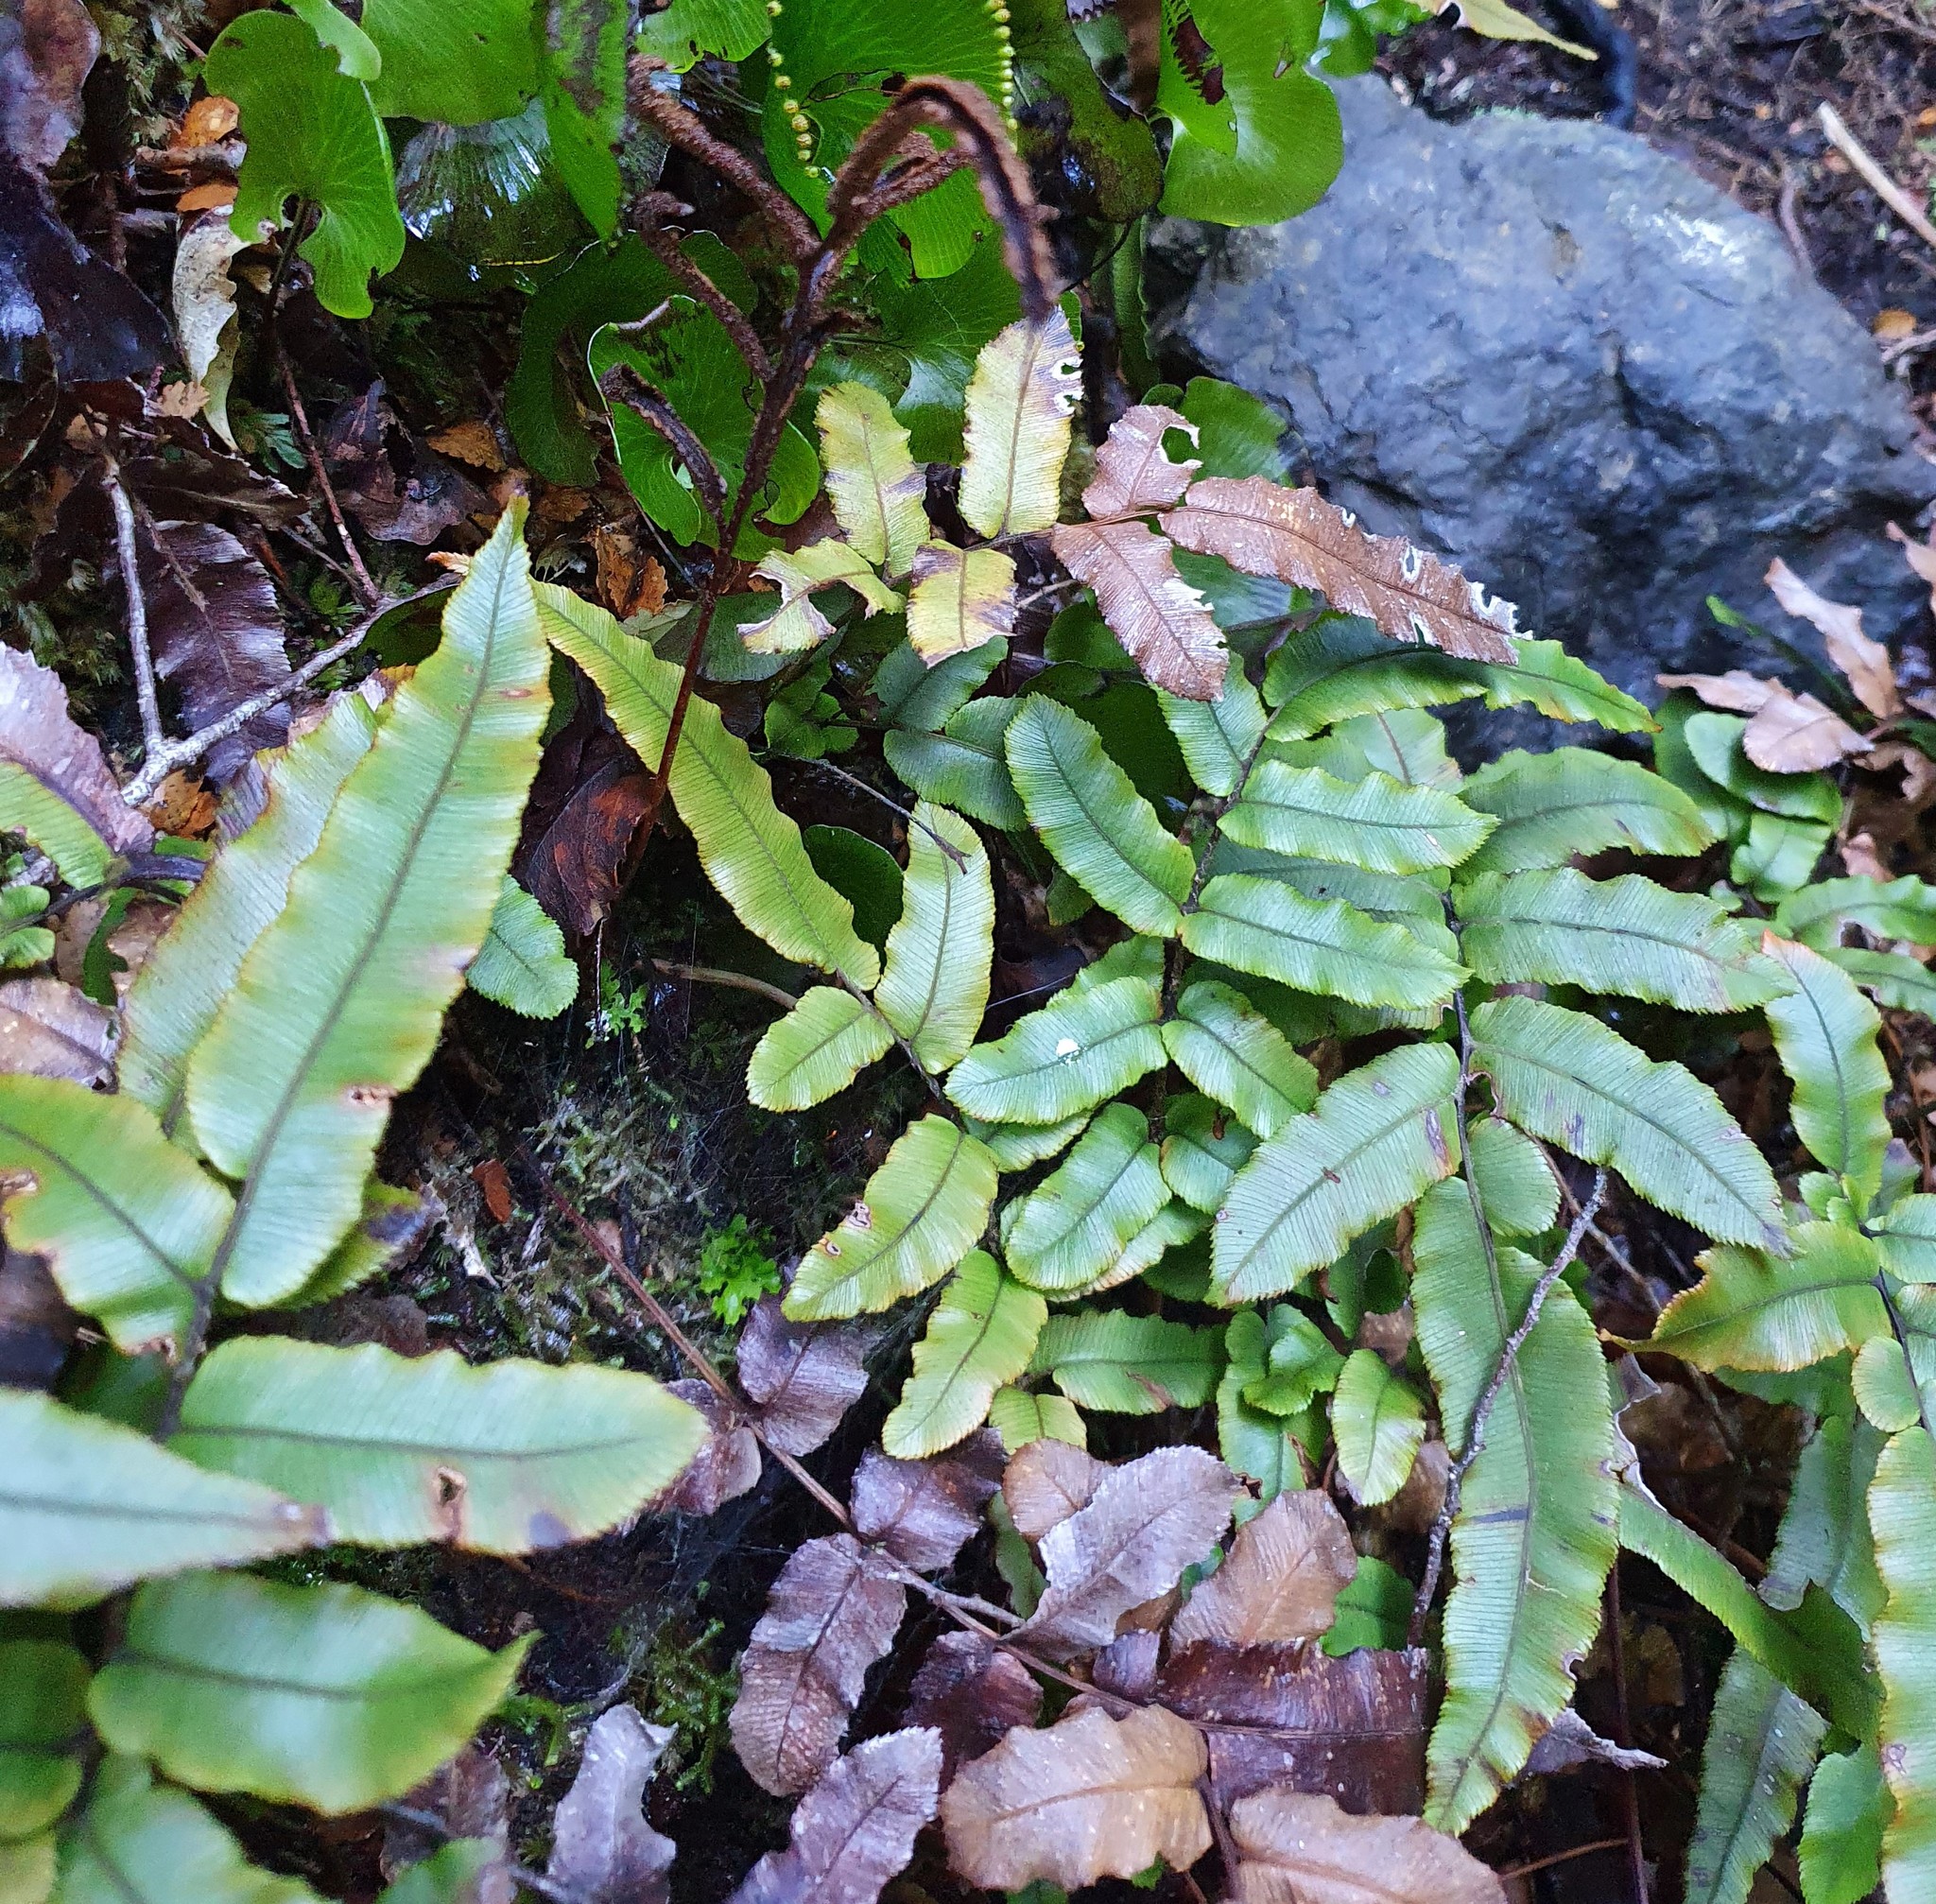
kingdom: Plantae
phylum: Tracheophyta
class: Polypodiopsida
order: Polypodiales
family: Blechnaceae
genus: Parablechnum
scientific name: Parablechnum procerum
